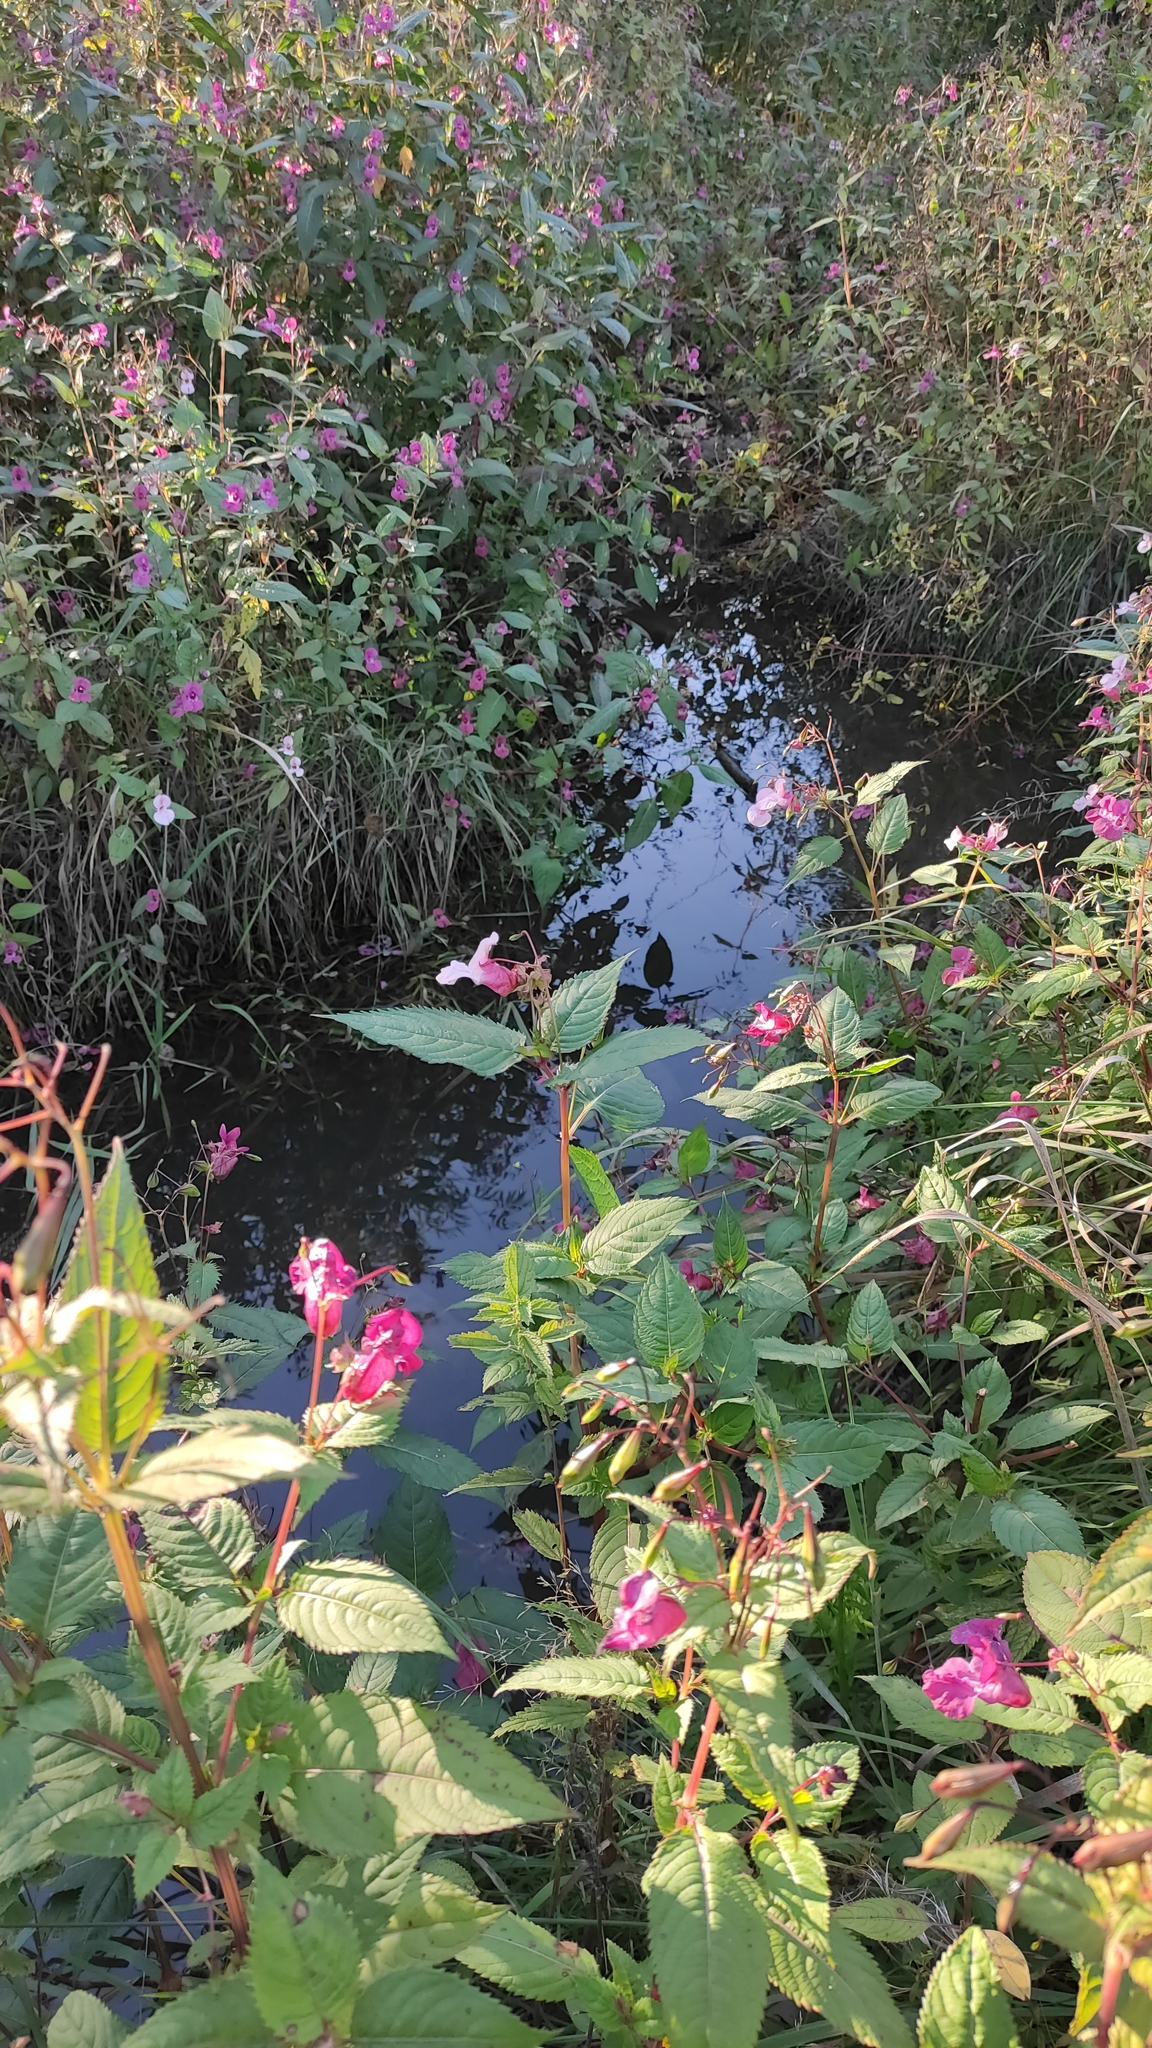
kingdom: Plantae
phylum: Tracheophyta
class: Magnoliopsida
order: Ericales
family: Balsaminaceae
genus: Impatiens
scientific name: Impatiens glandulifera
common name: Himalayan balsam
